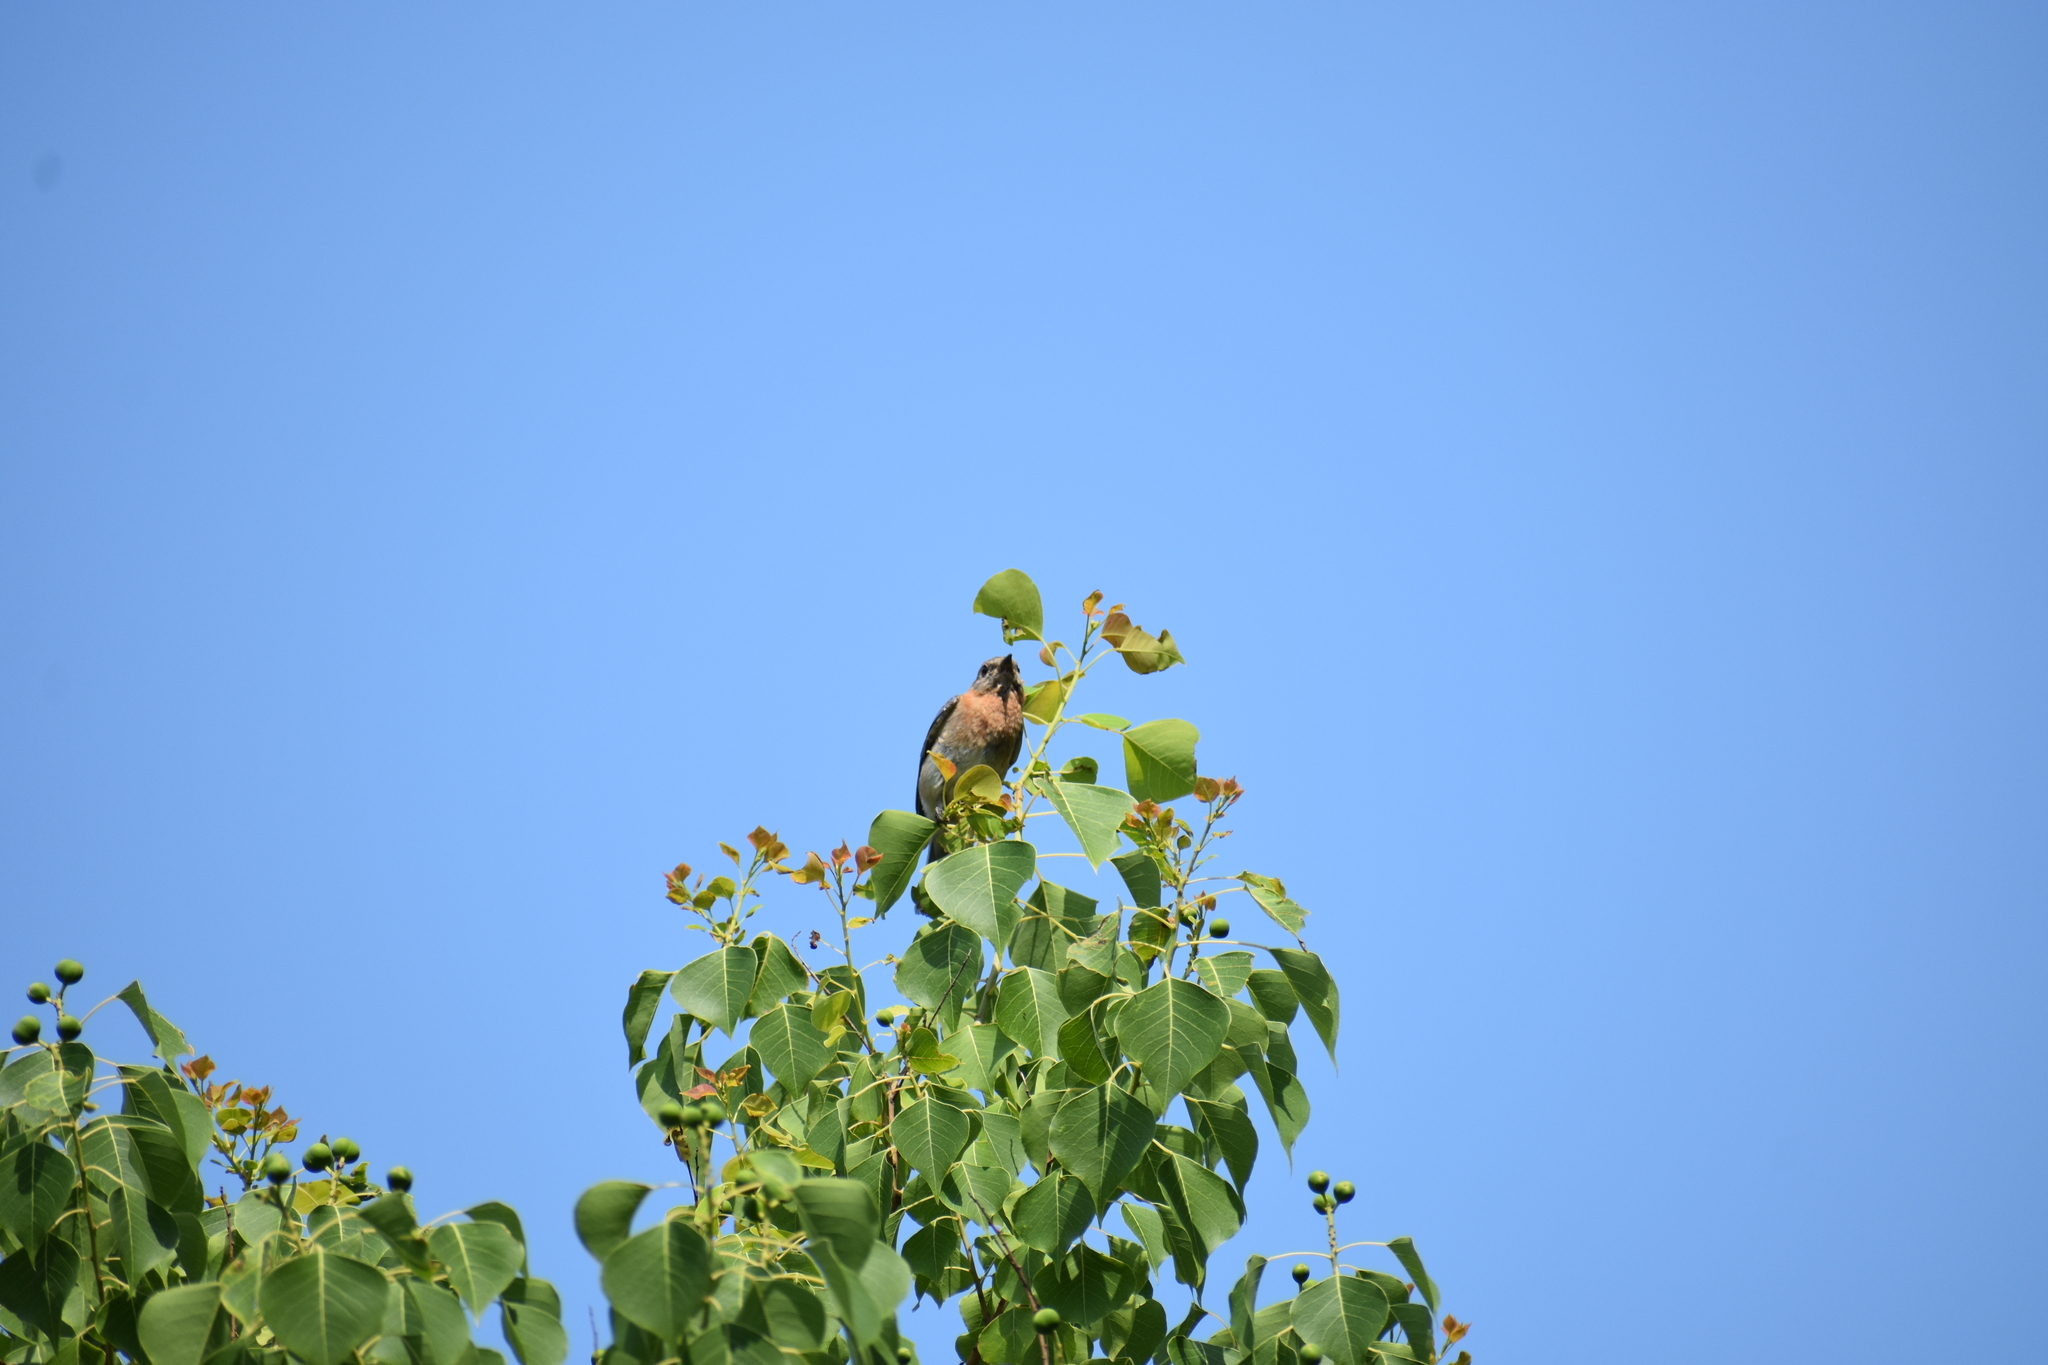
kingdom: Animalia
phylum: Chordata
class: Aves
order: Passeriformes
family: Turdidae
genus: Sialia
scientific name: Sialia sialis
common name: Eastern bluebird
